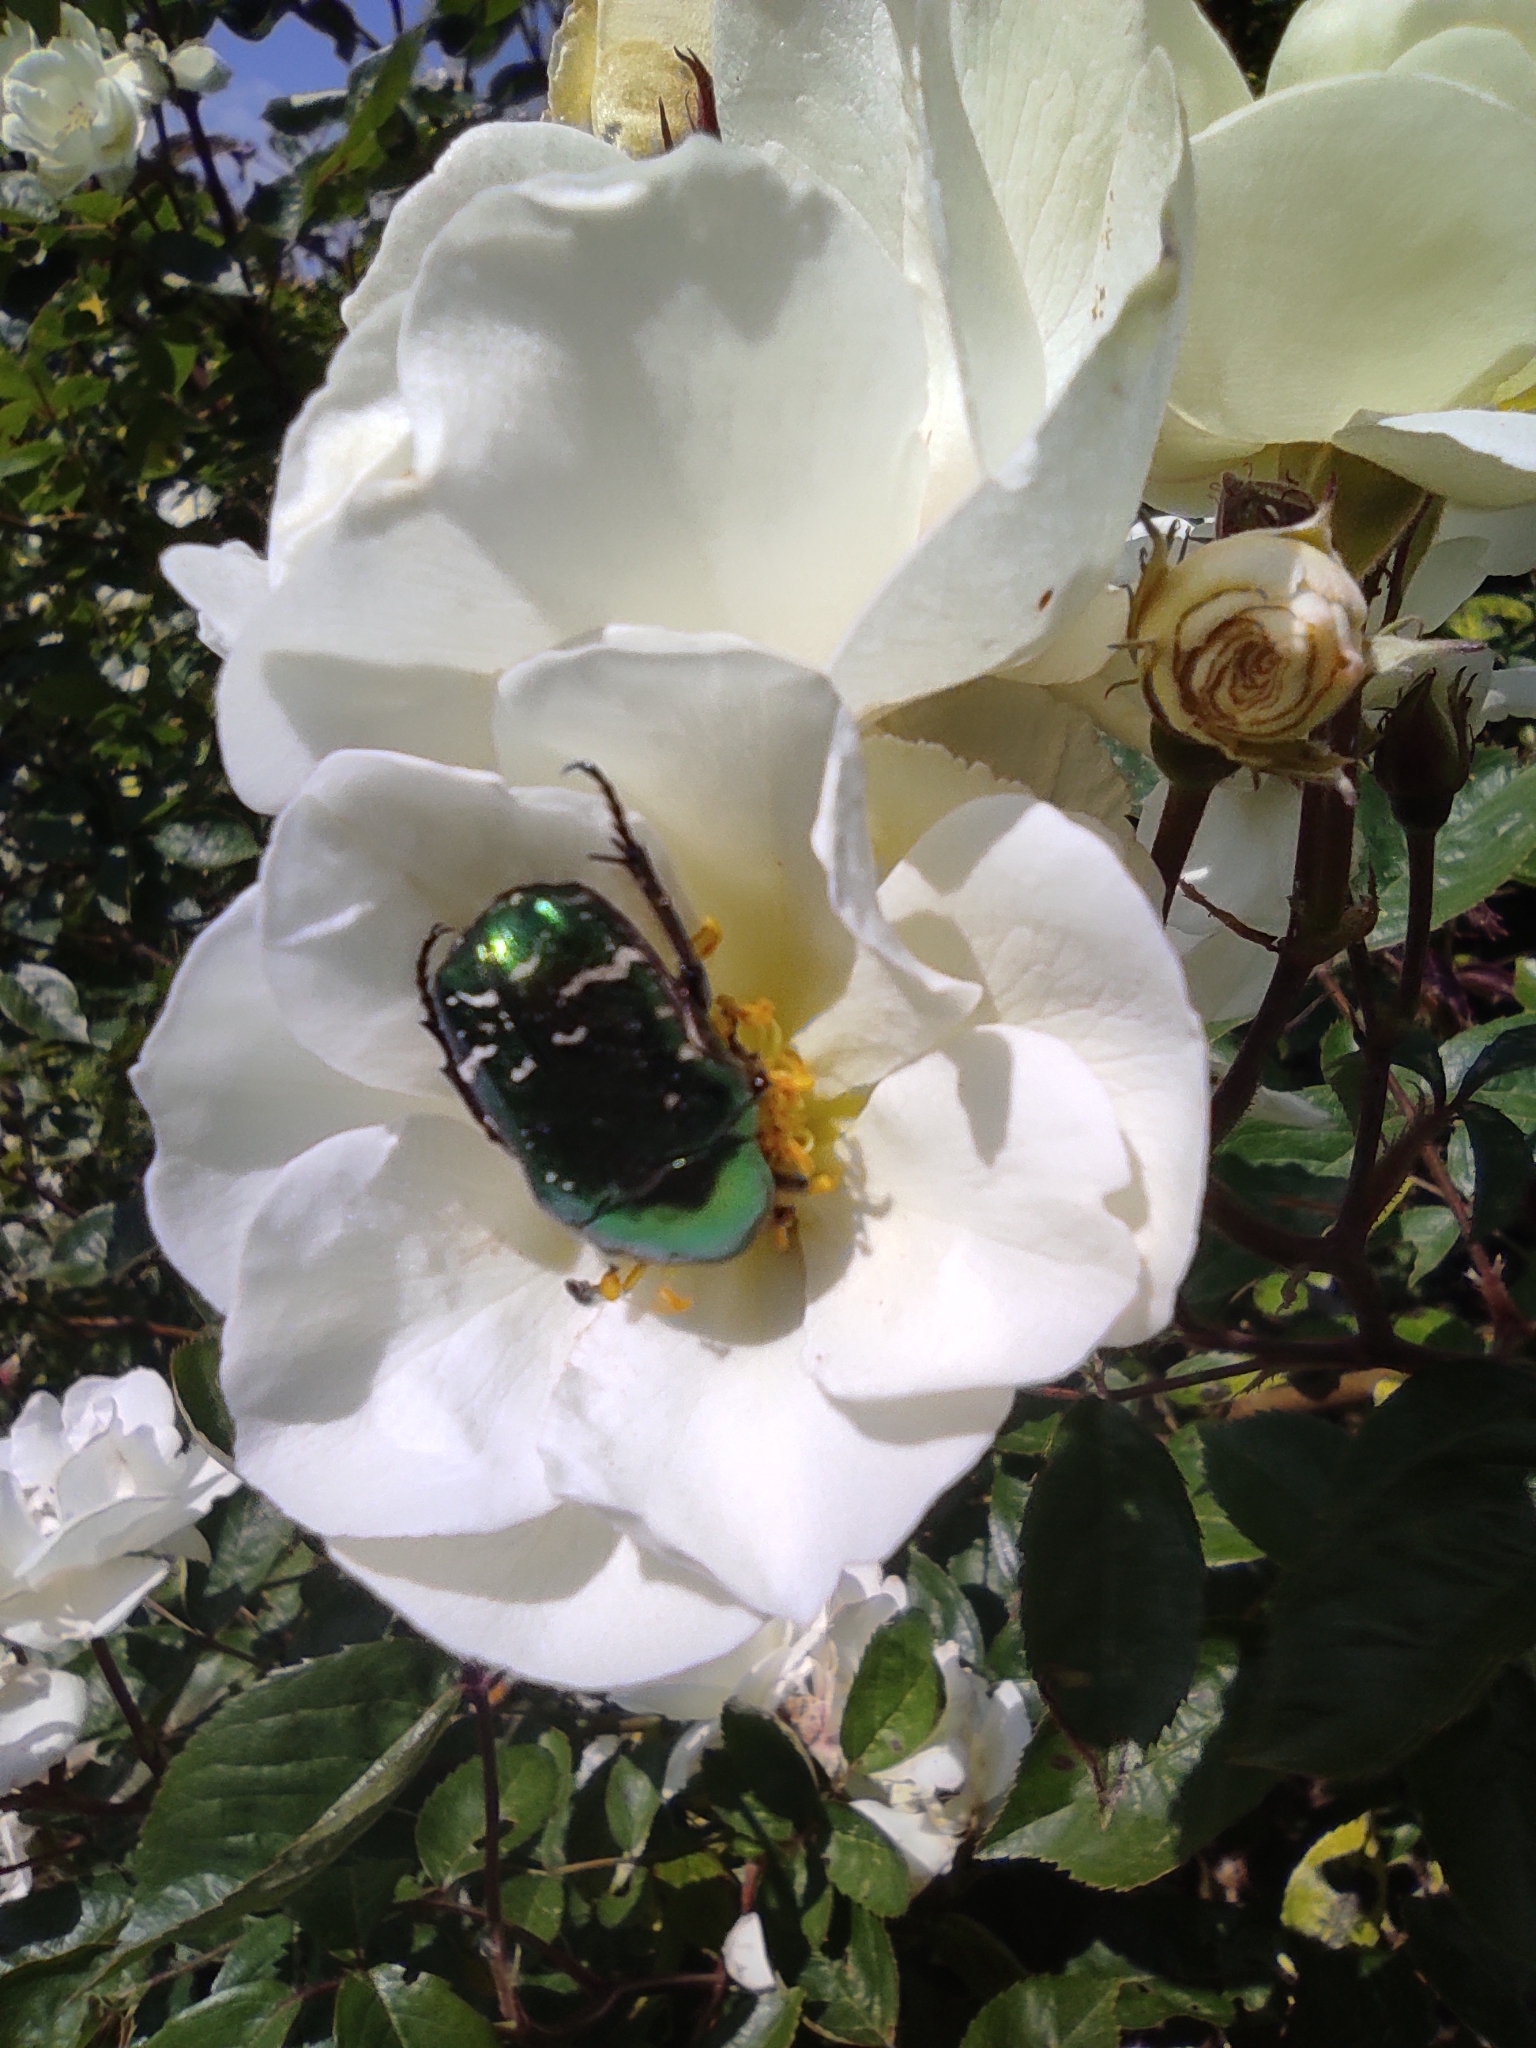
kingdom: Animalia
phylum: Arthropoda
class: Insecta
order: Coleoptera
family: Scarabaeidae
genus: Cetonia
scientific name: Cetonia aurata
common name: Rose chafer
